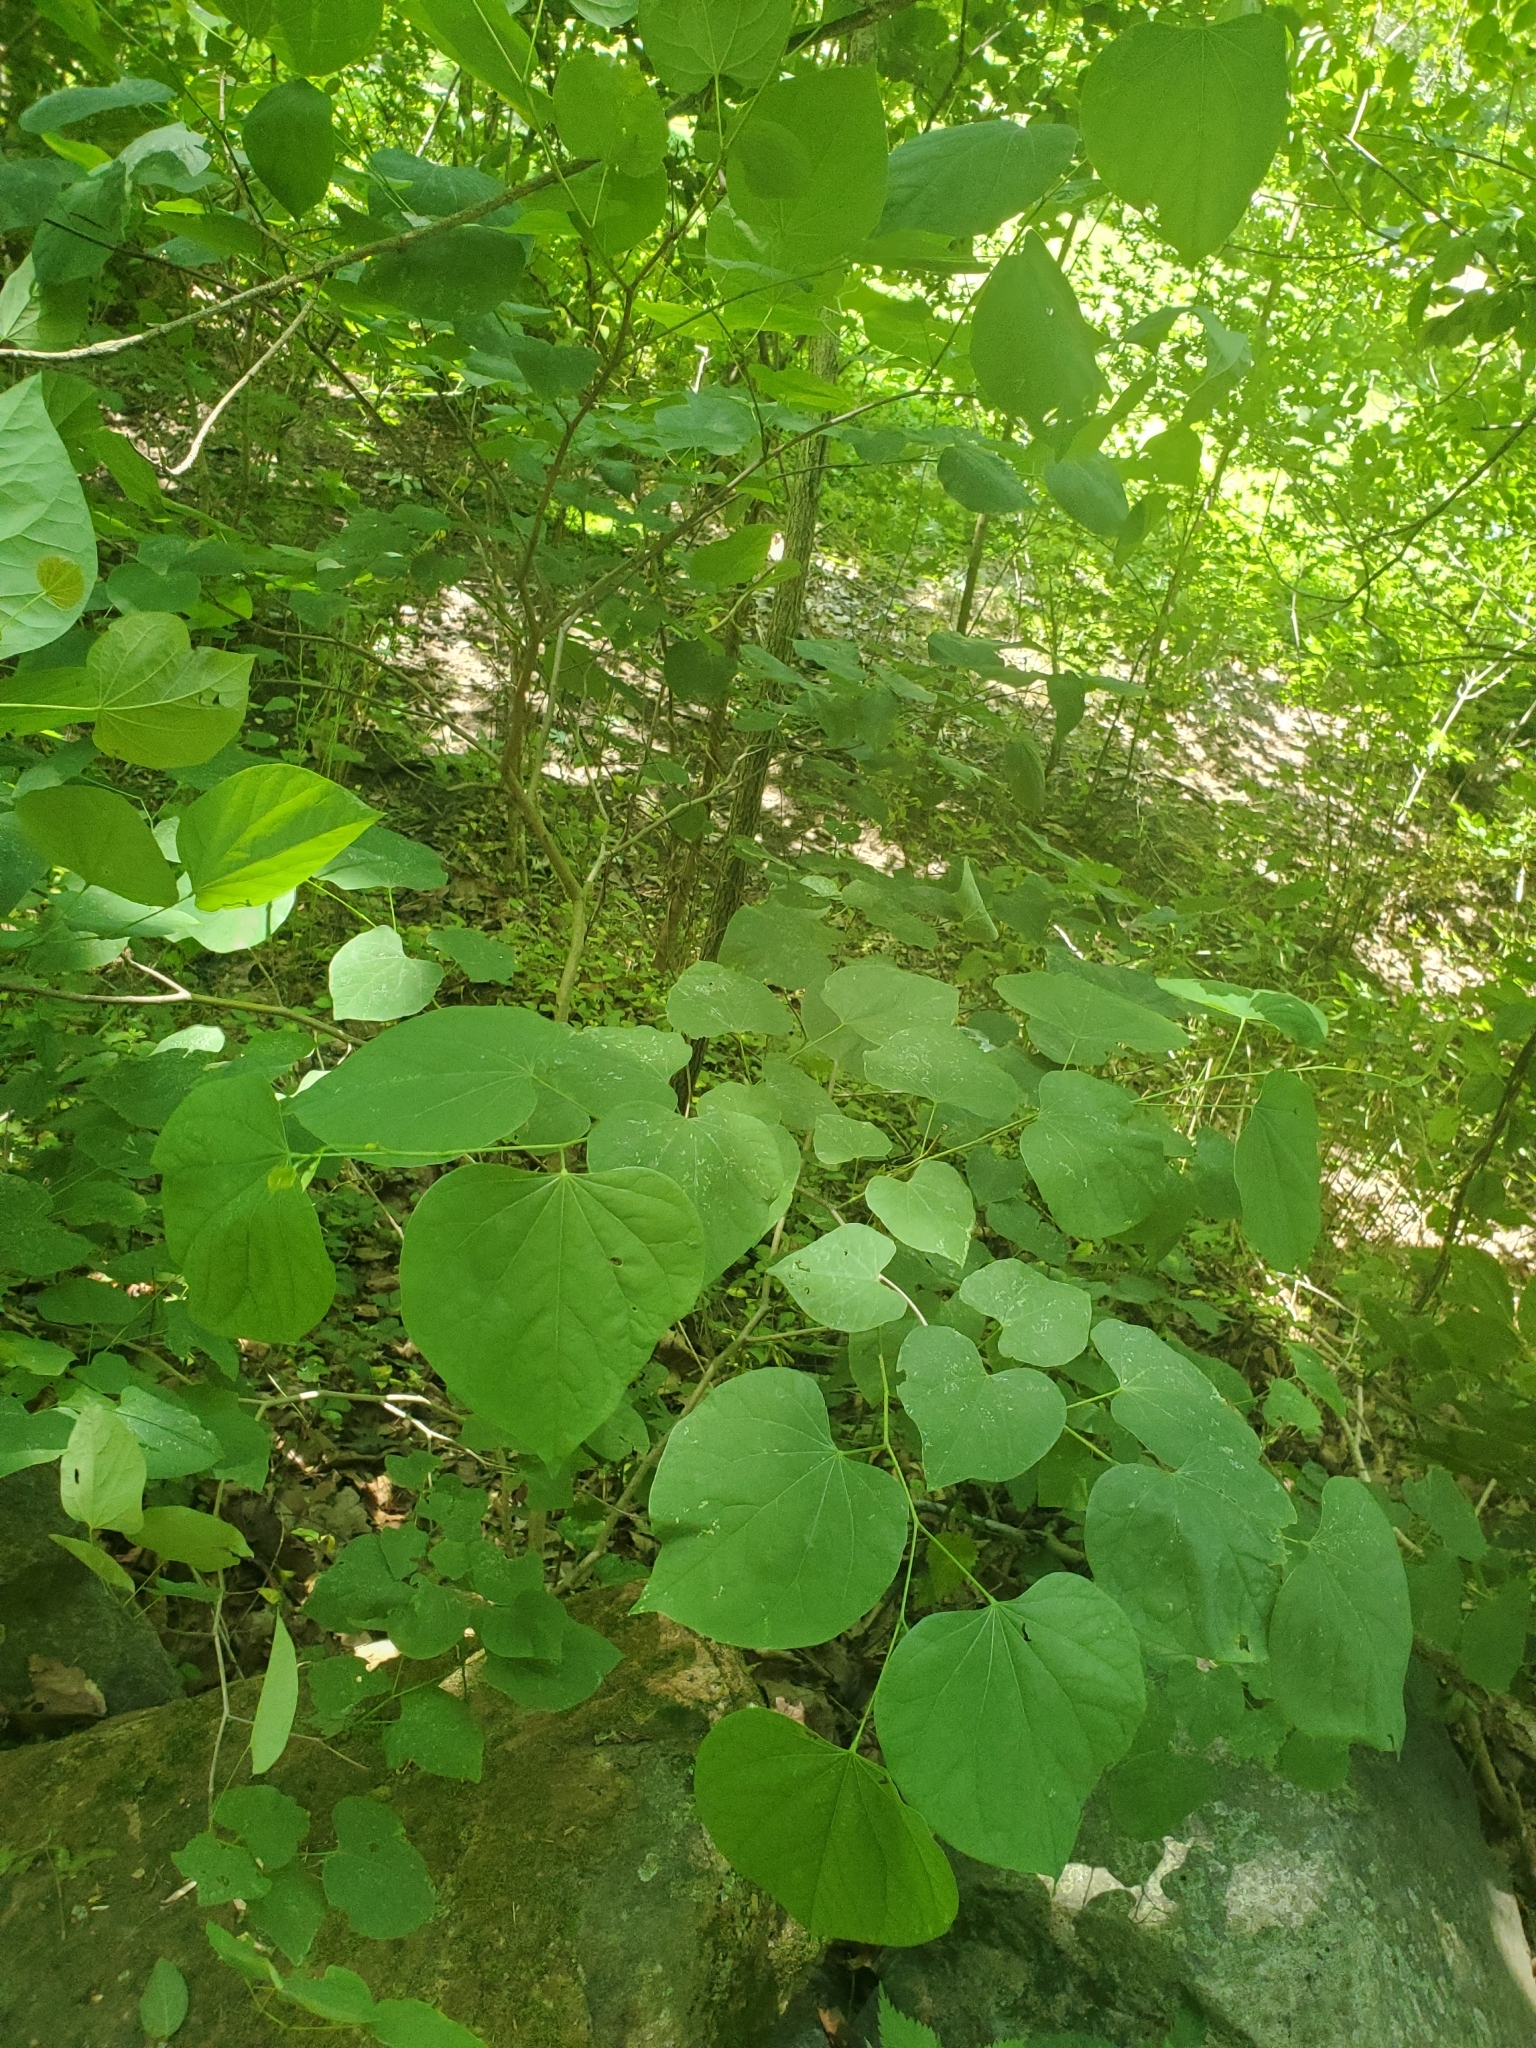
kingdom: Plantae
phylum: Tracheophyta
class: Magnoliopsida
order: Fabales
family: Fabaceae
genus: Cercis
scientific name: Cercis canadensis
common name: Eastern redbud
